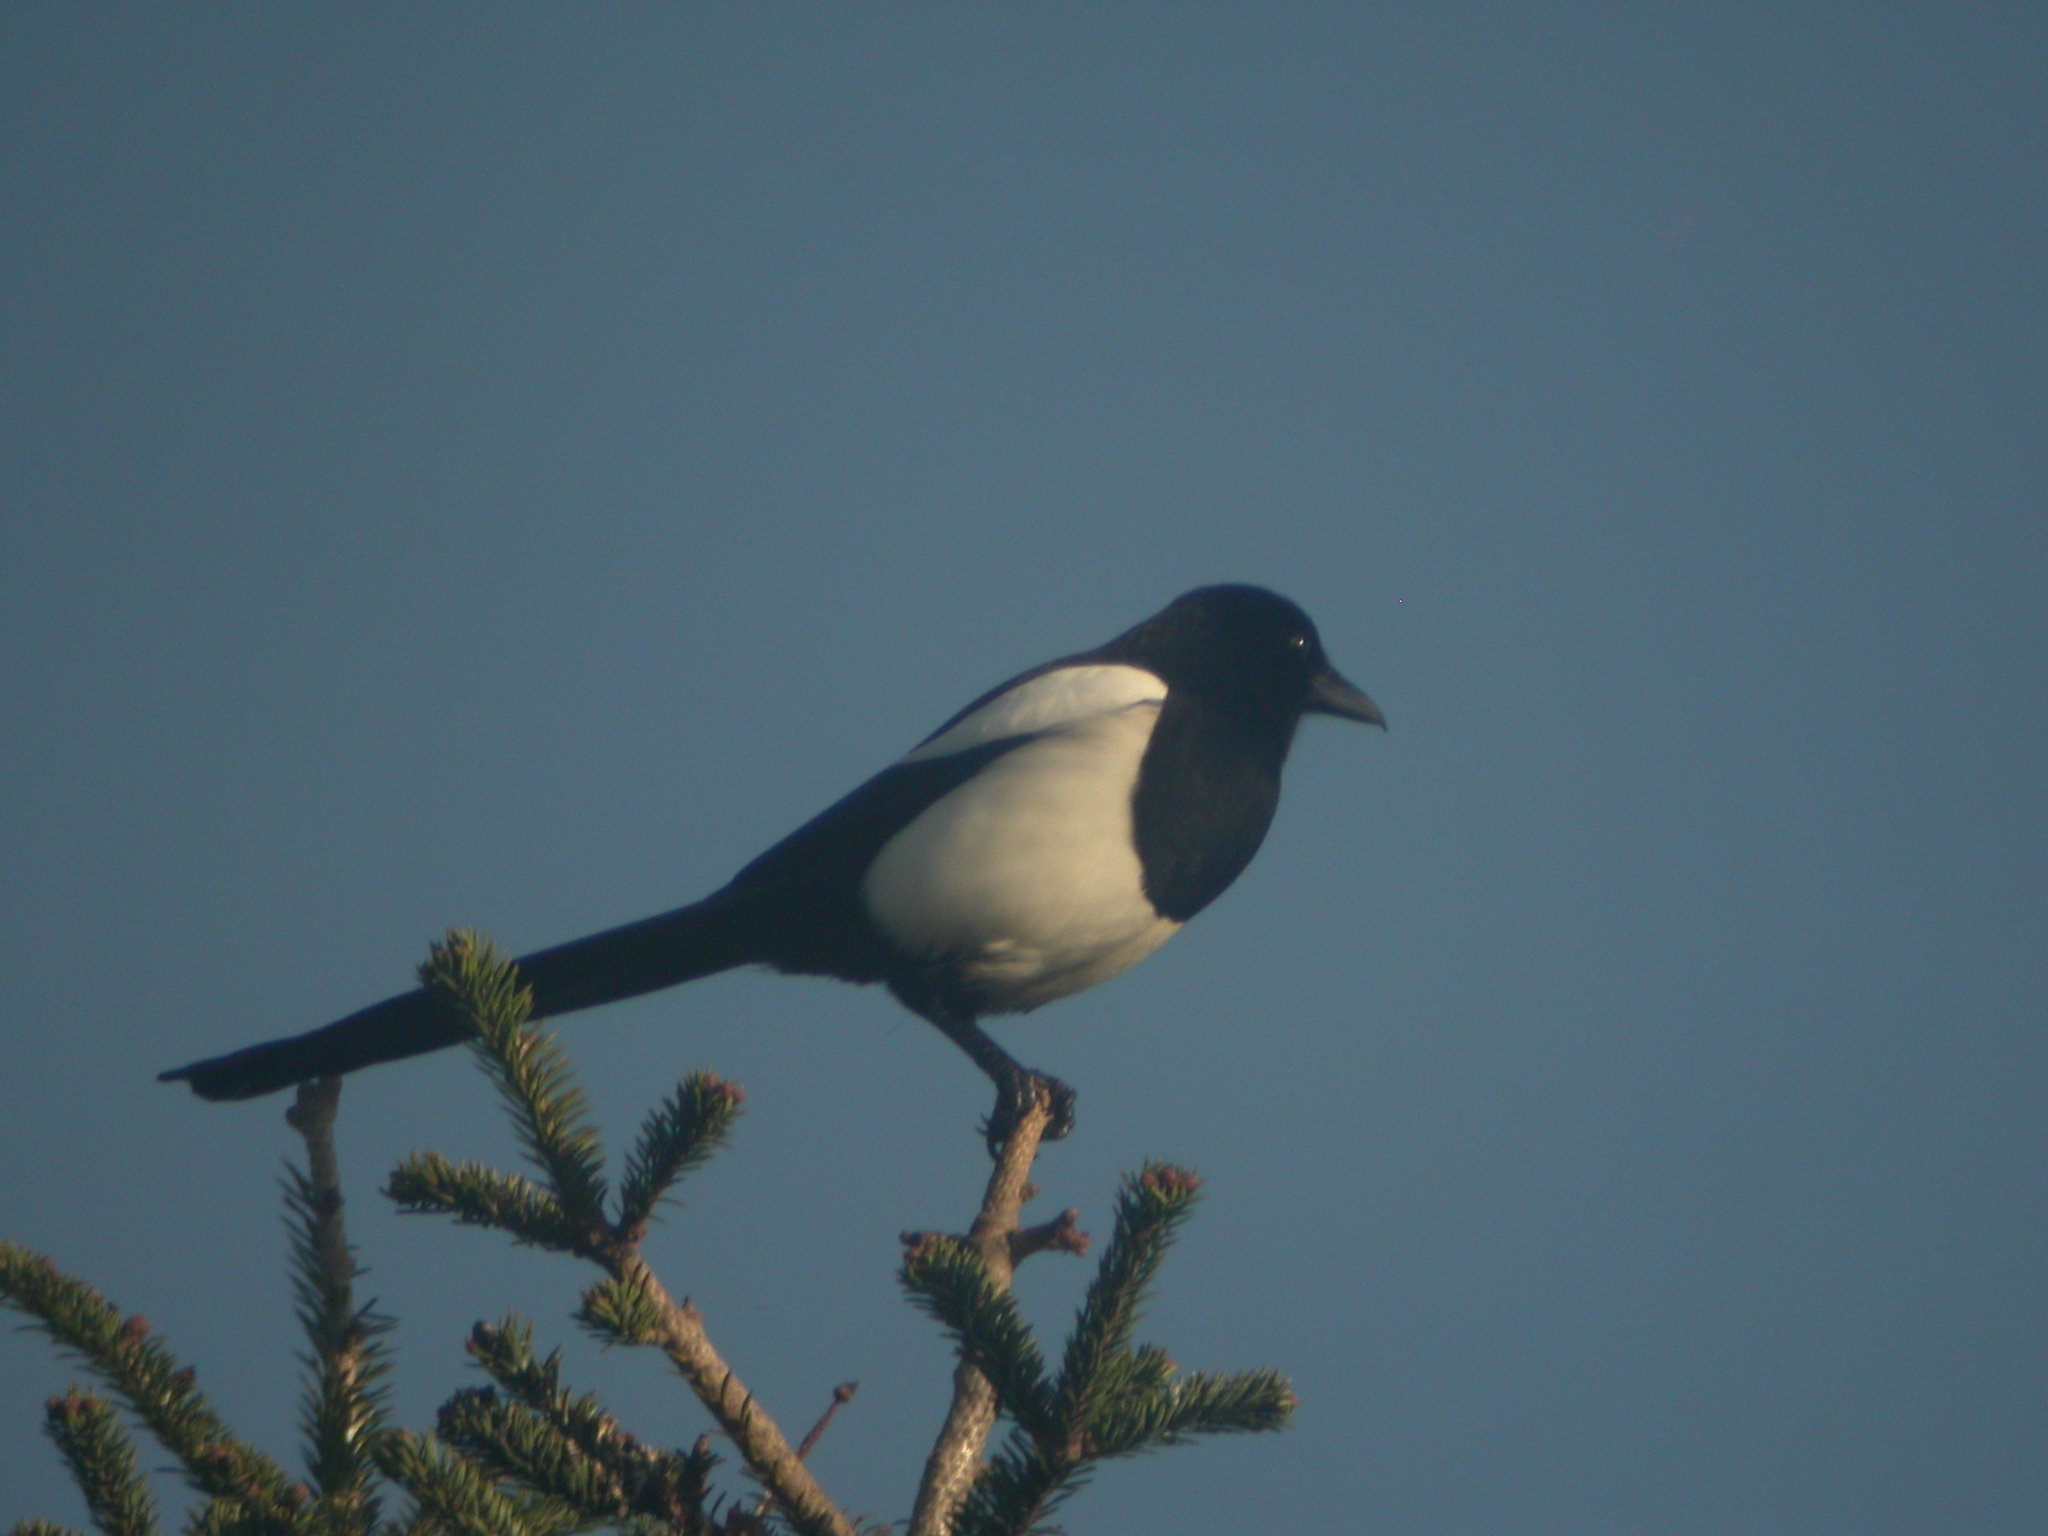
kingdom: Animalia
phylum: Chordata
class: Aves
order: Passeriformes
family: Corvidae
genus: Pica
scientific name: Pica pica
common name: Eurasian magpie
